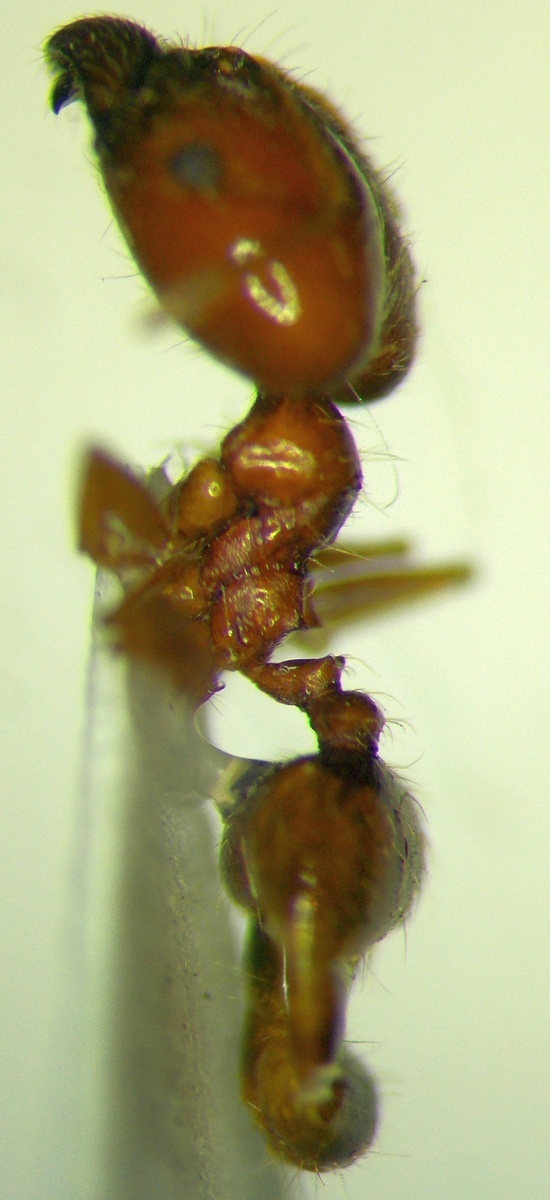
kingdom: Animalia
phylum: Arthropoda
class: Insecta
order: Hymenoptera
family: Formicidae
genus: Pheidole
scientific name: Pheidole pallidula
